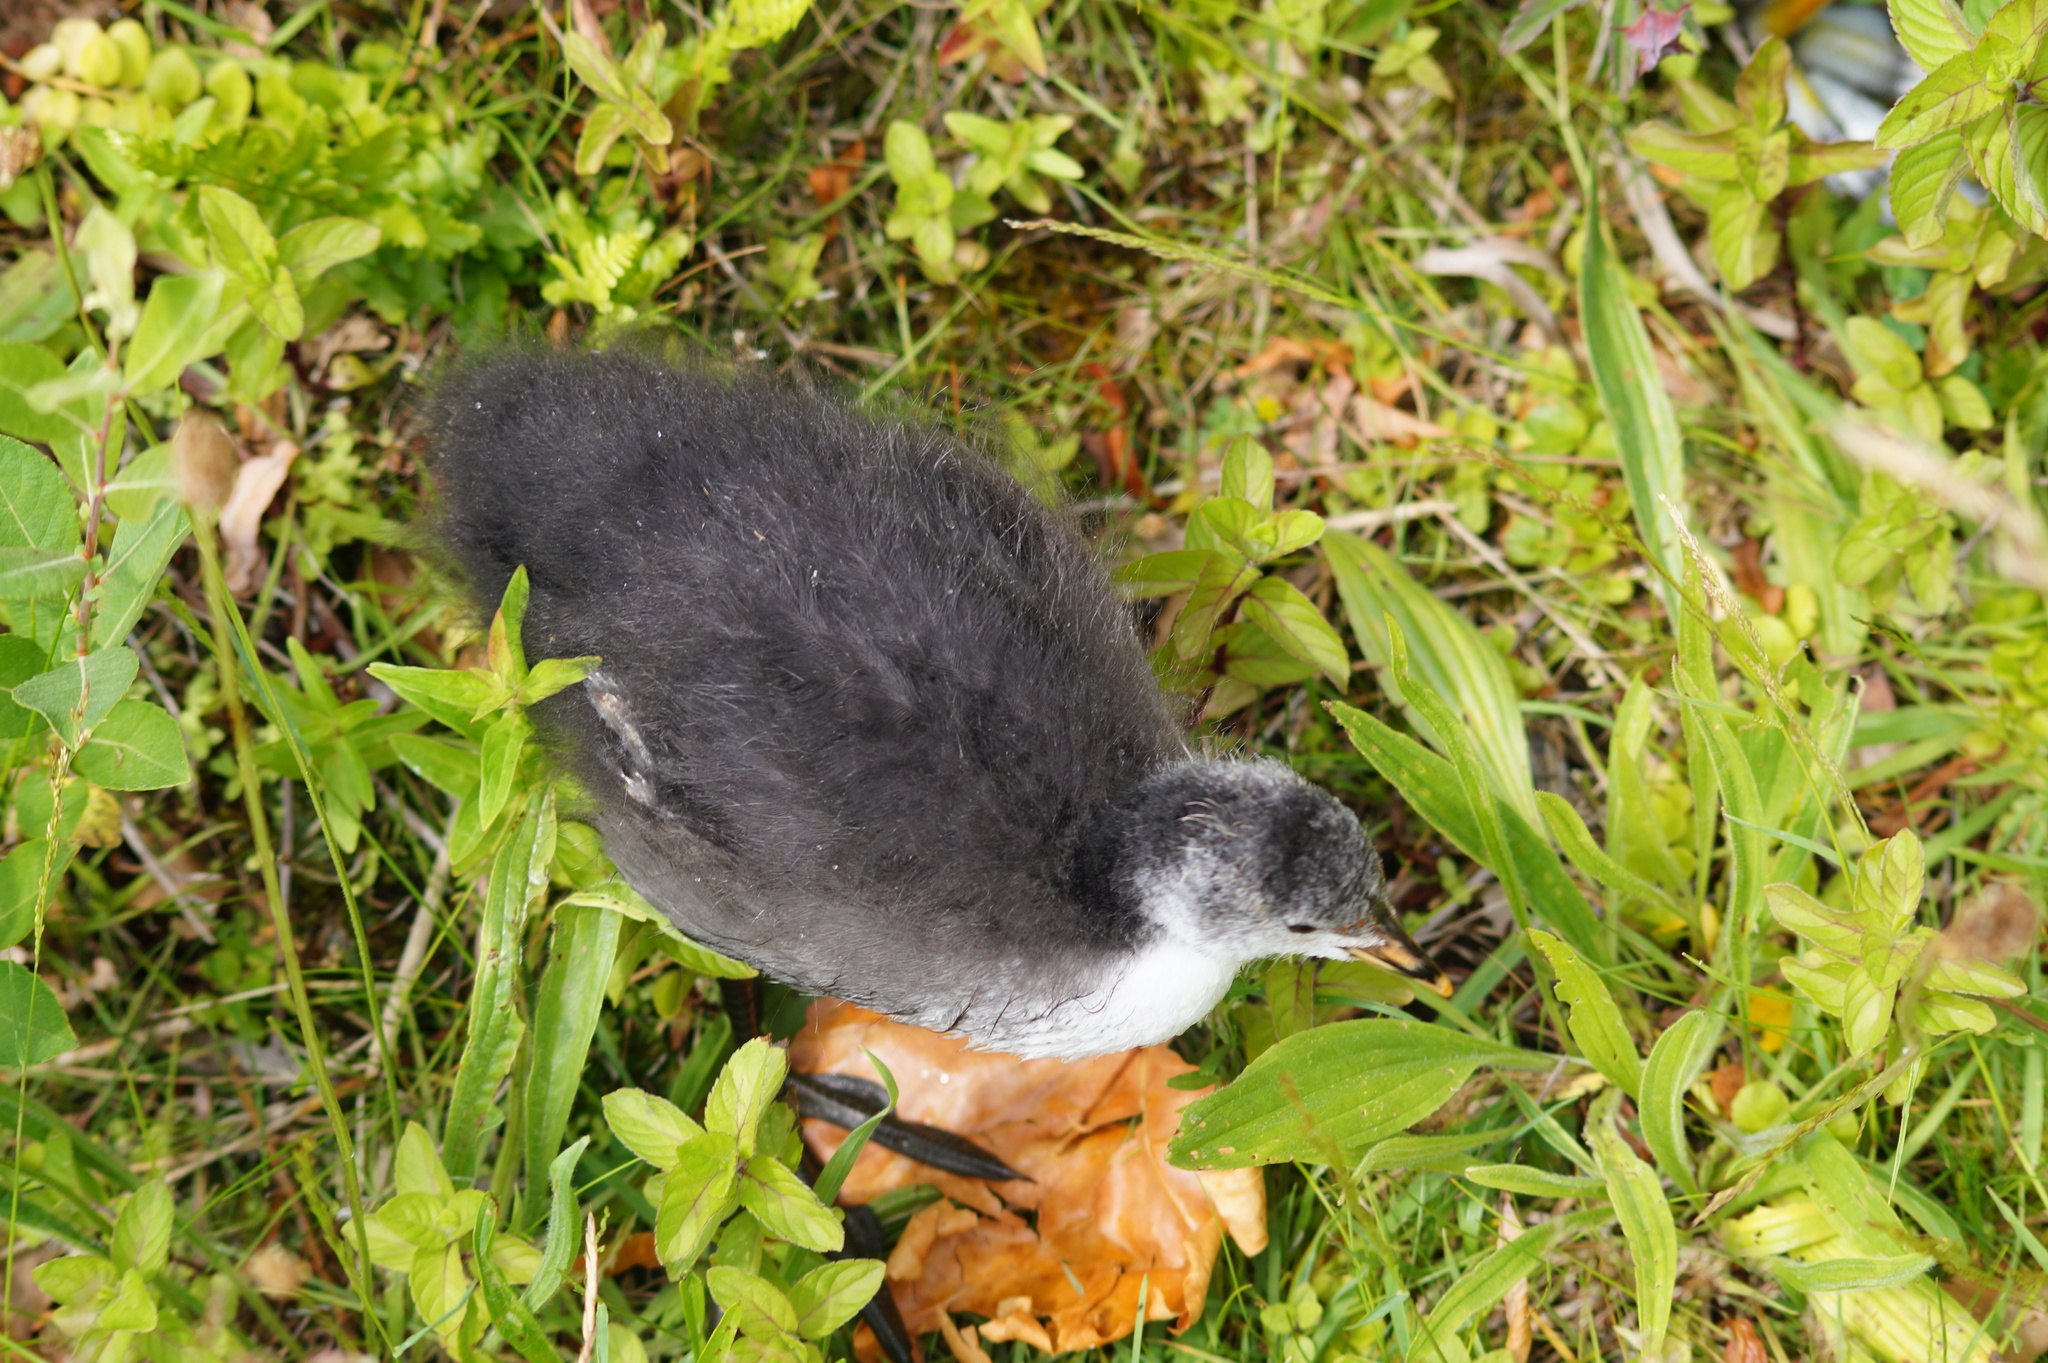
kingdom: Animalia
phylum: Chordata
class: Aves
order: Gruiformes
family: Rallidae
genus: Fulica
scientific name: Fulica atra
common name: Eurasian coot
